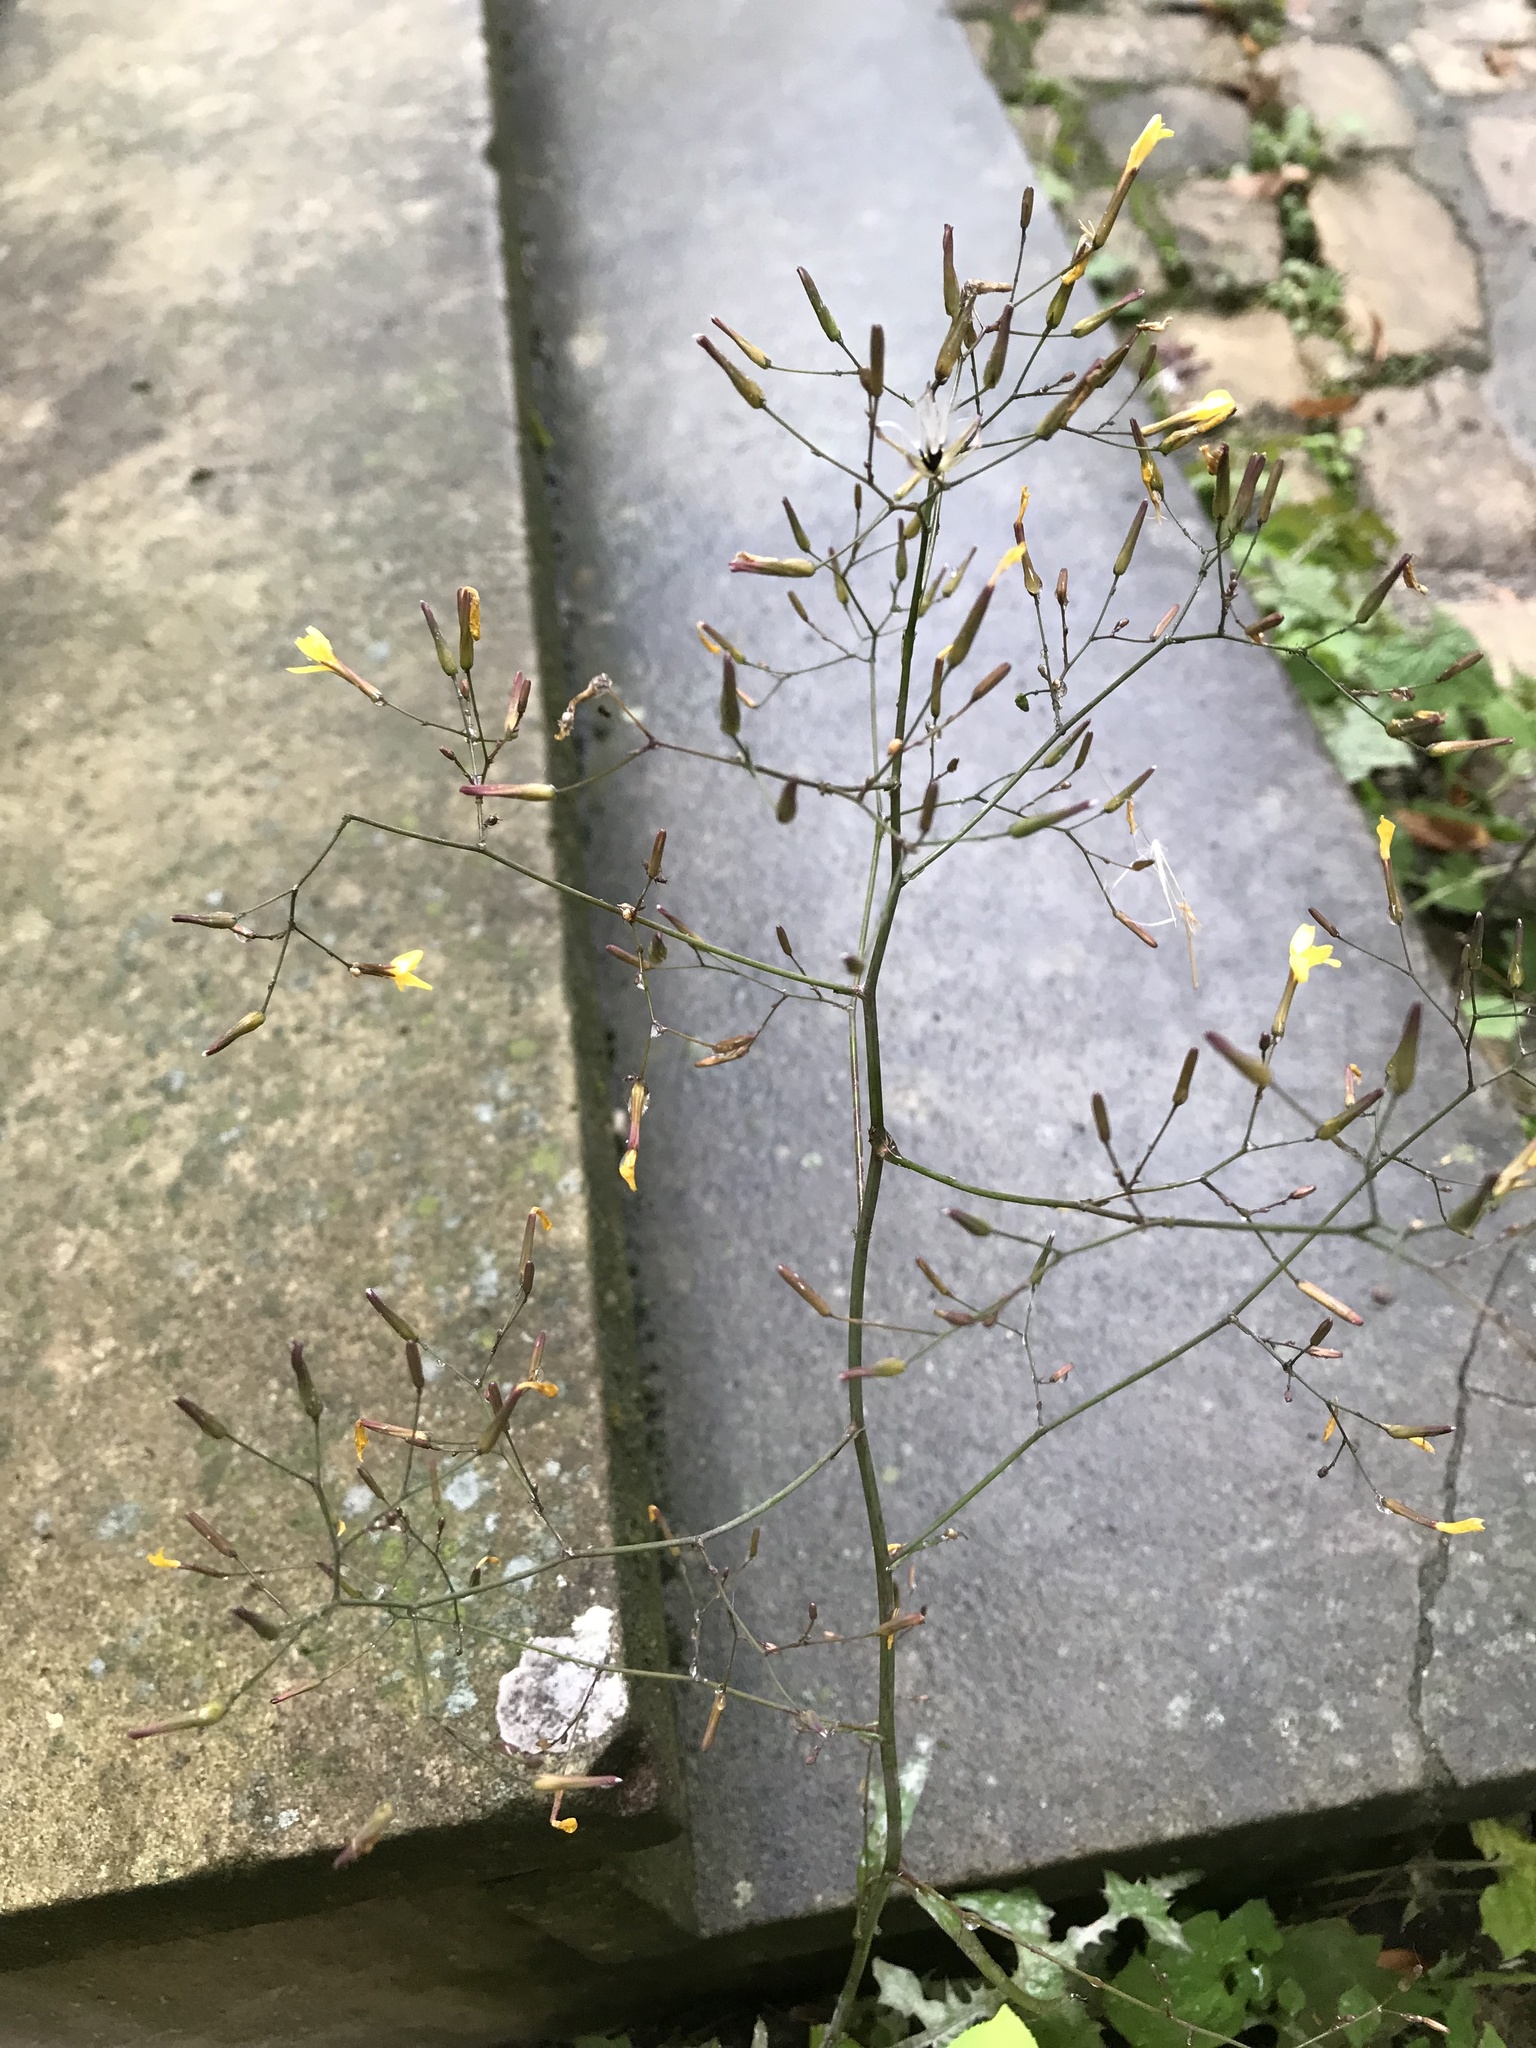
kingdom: Plantae
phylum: Tracheophyta
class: Magnoliopsida
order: Asterales
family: Asteraceae
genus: Mycelis
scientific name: Mycelis muralis
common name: Wall lettuce
